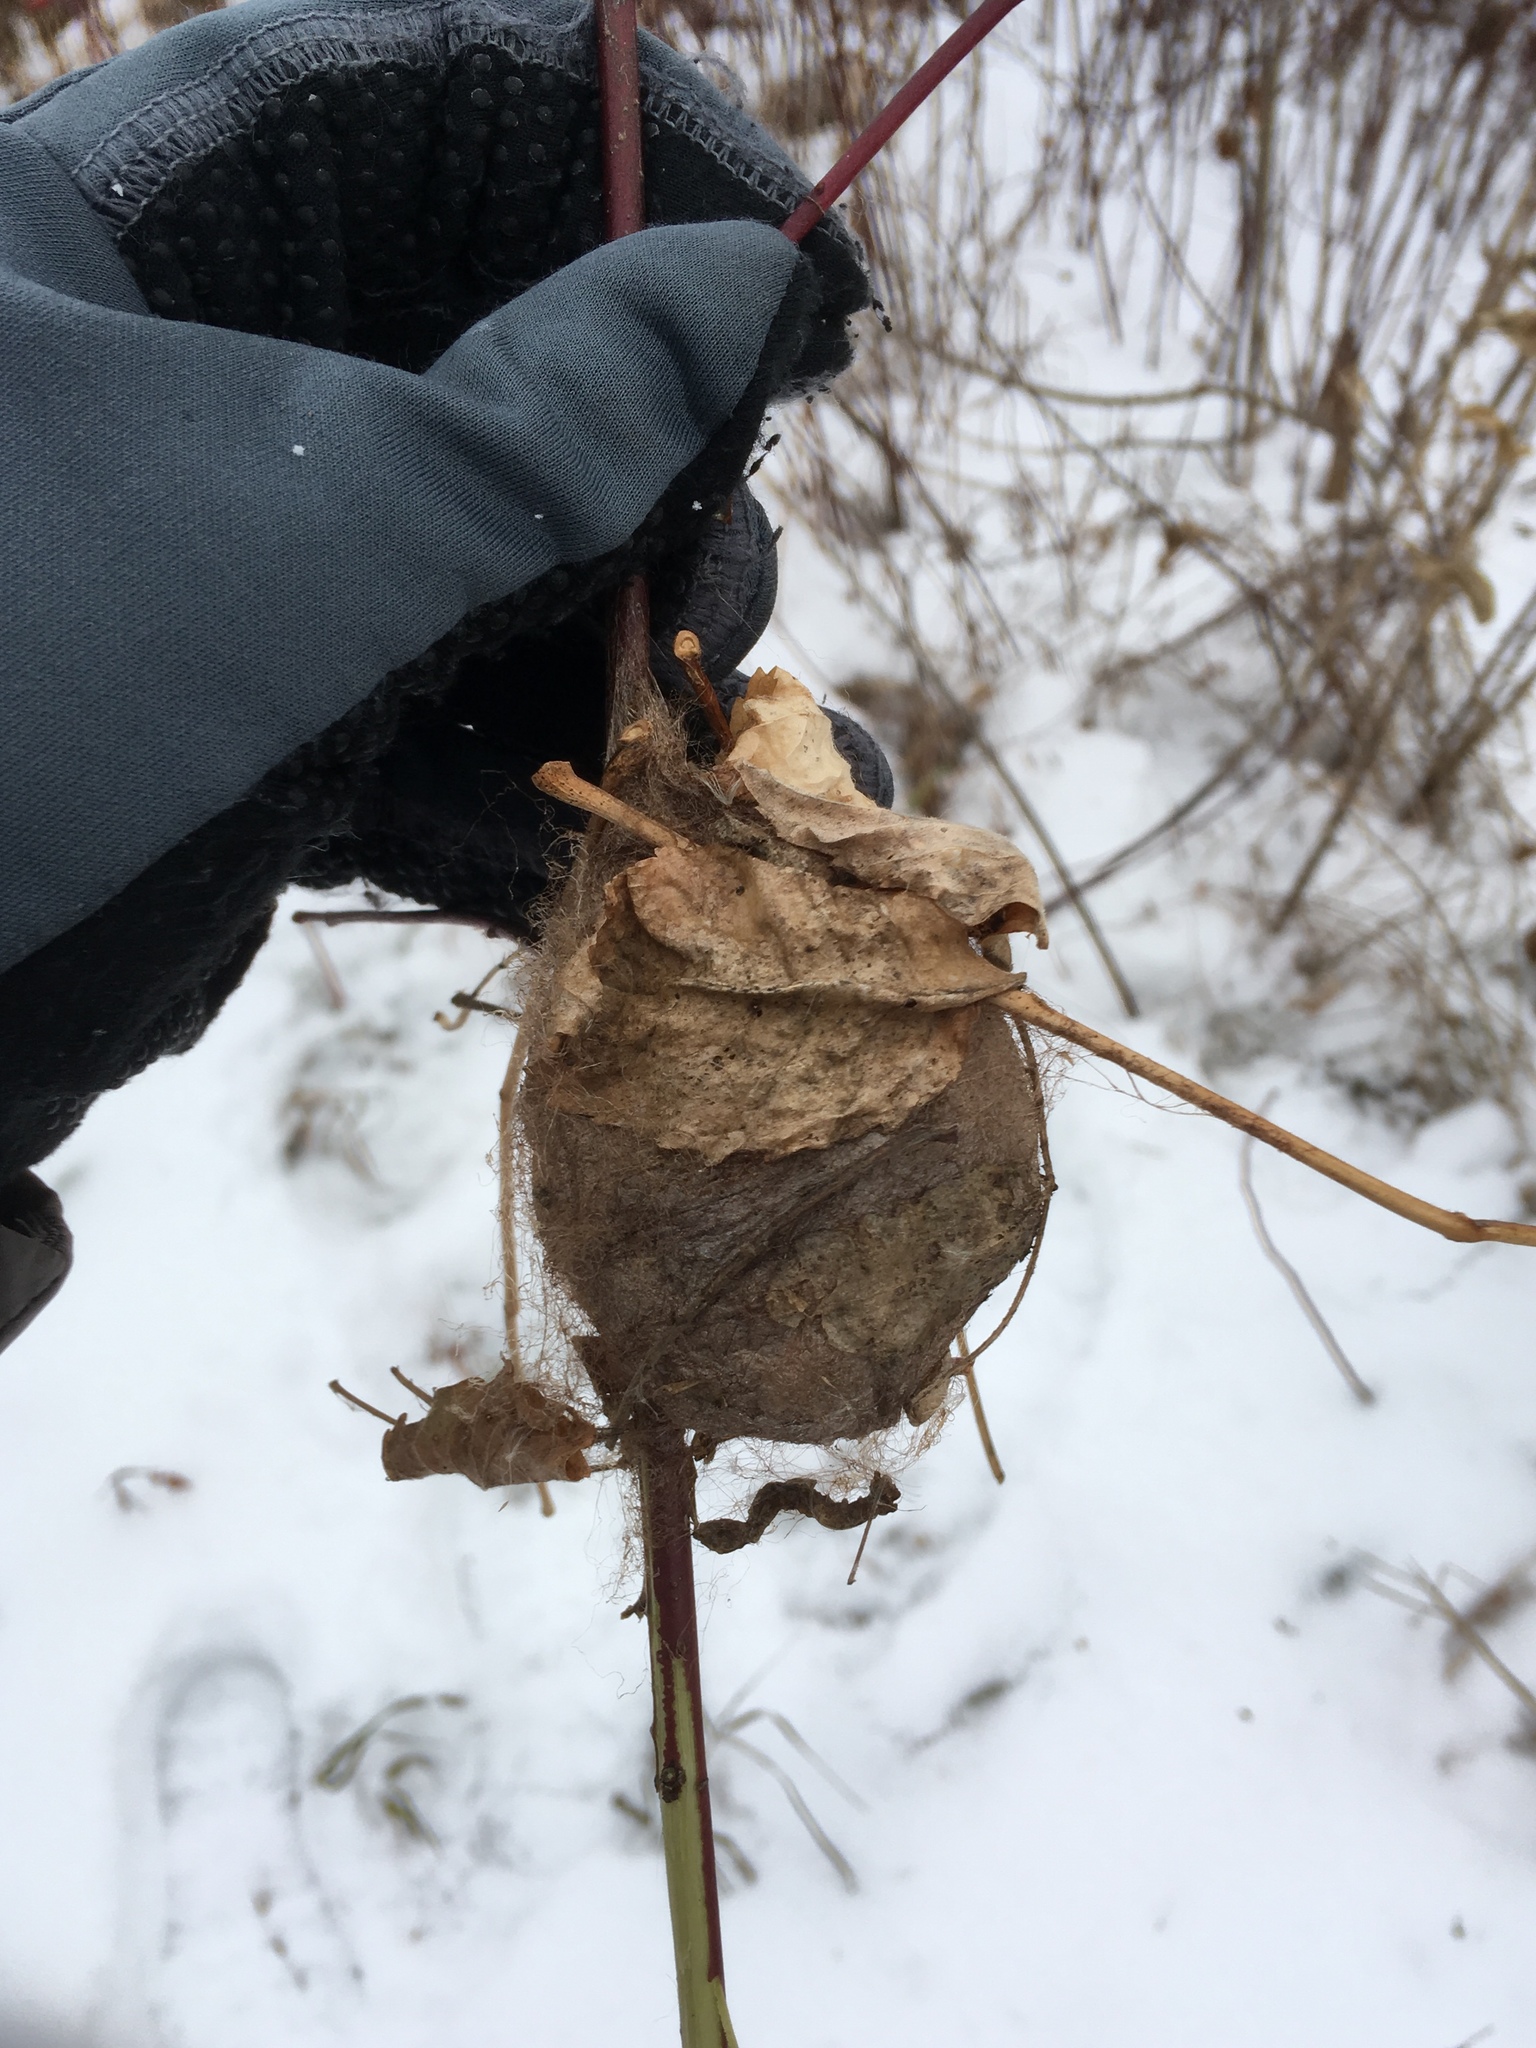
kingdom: Animalia
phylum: Arthropoda
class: Insecta
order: Lepidoptera
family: Saturniidae
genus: Hyalophora
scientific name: Hyalophora cecropia
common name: Cecropia silkmoth
